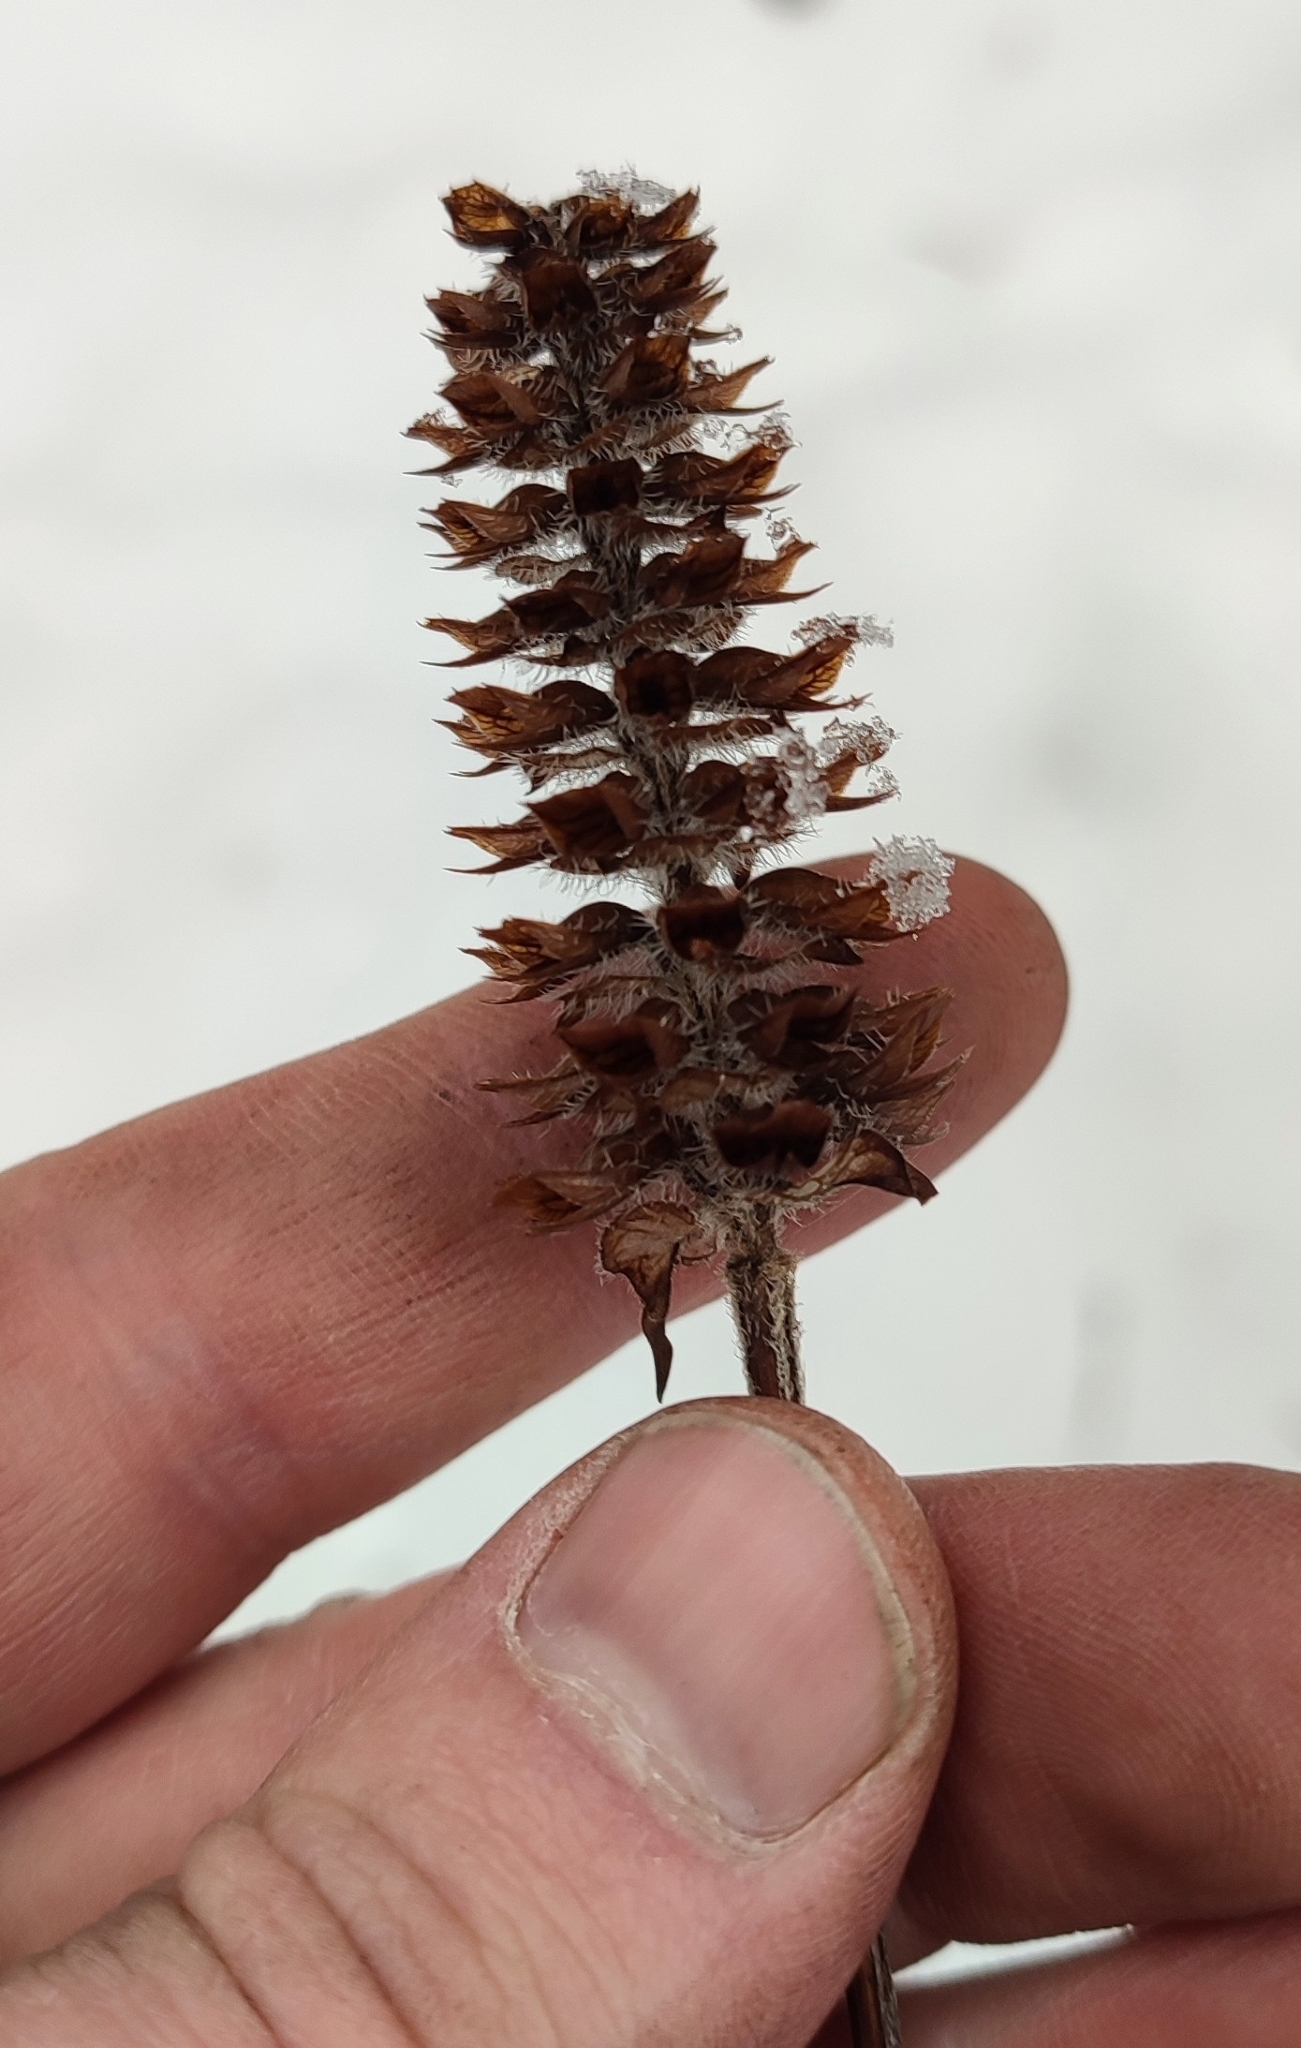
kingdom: Plantae
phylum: Tracheophyta
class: Magnoliopsida
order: Lamiales
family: Lamiaceae
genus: Prunella
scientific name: Prunella vulgaris
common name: Heal-all
